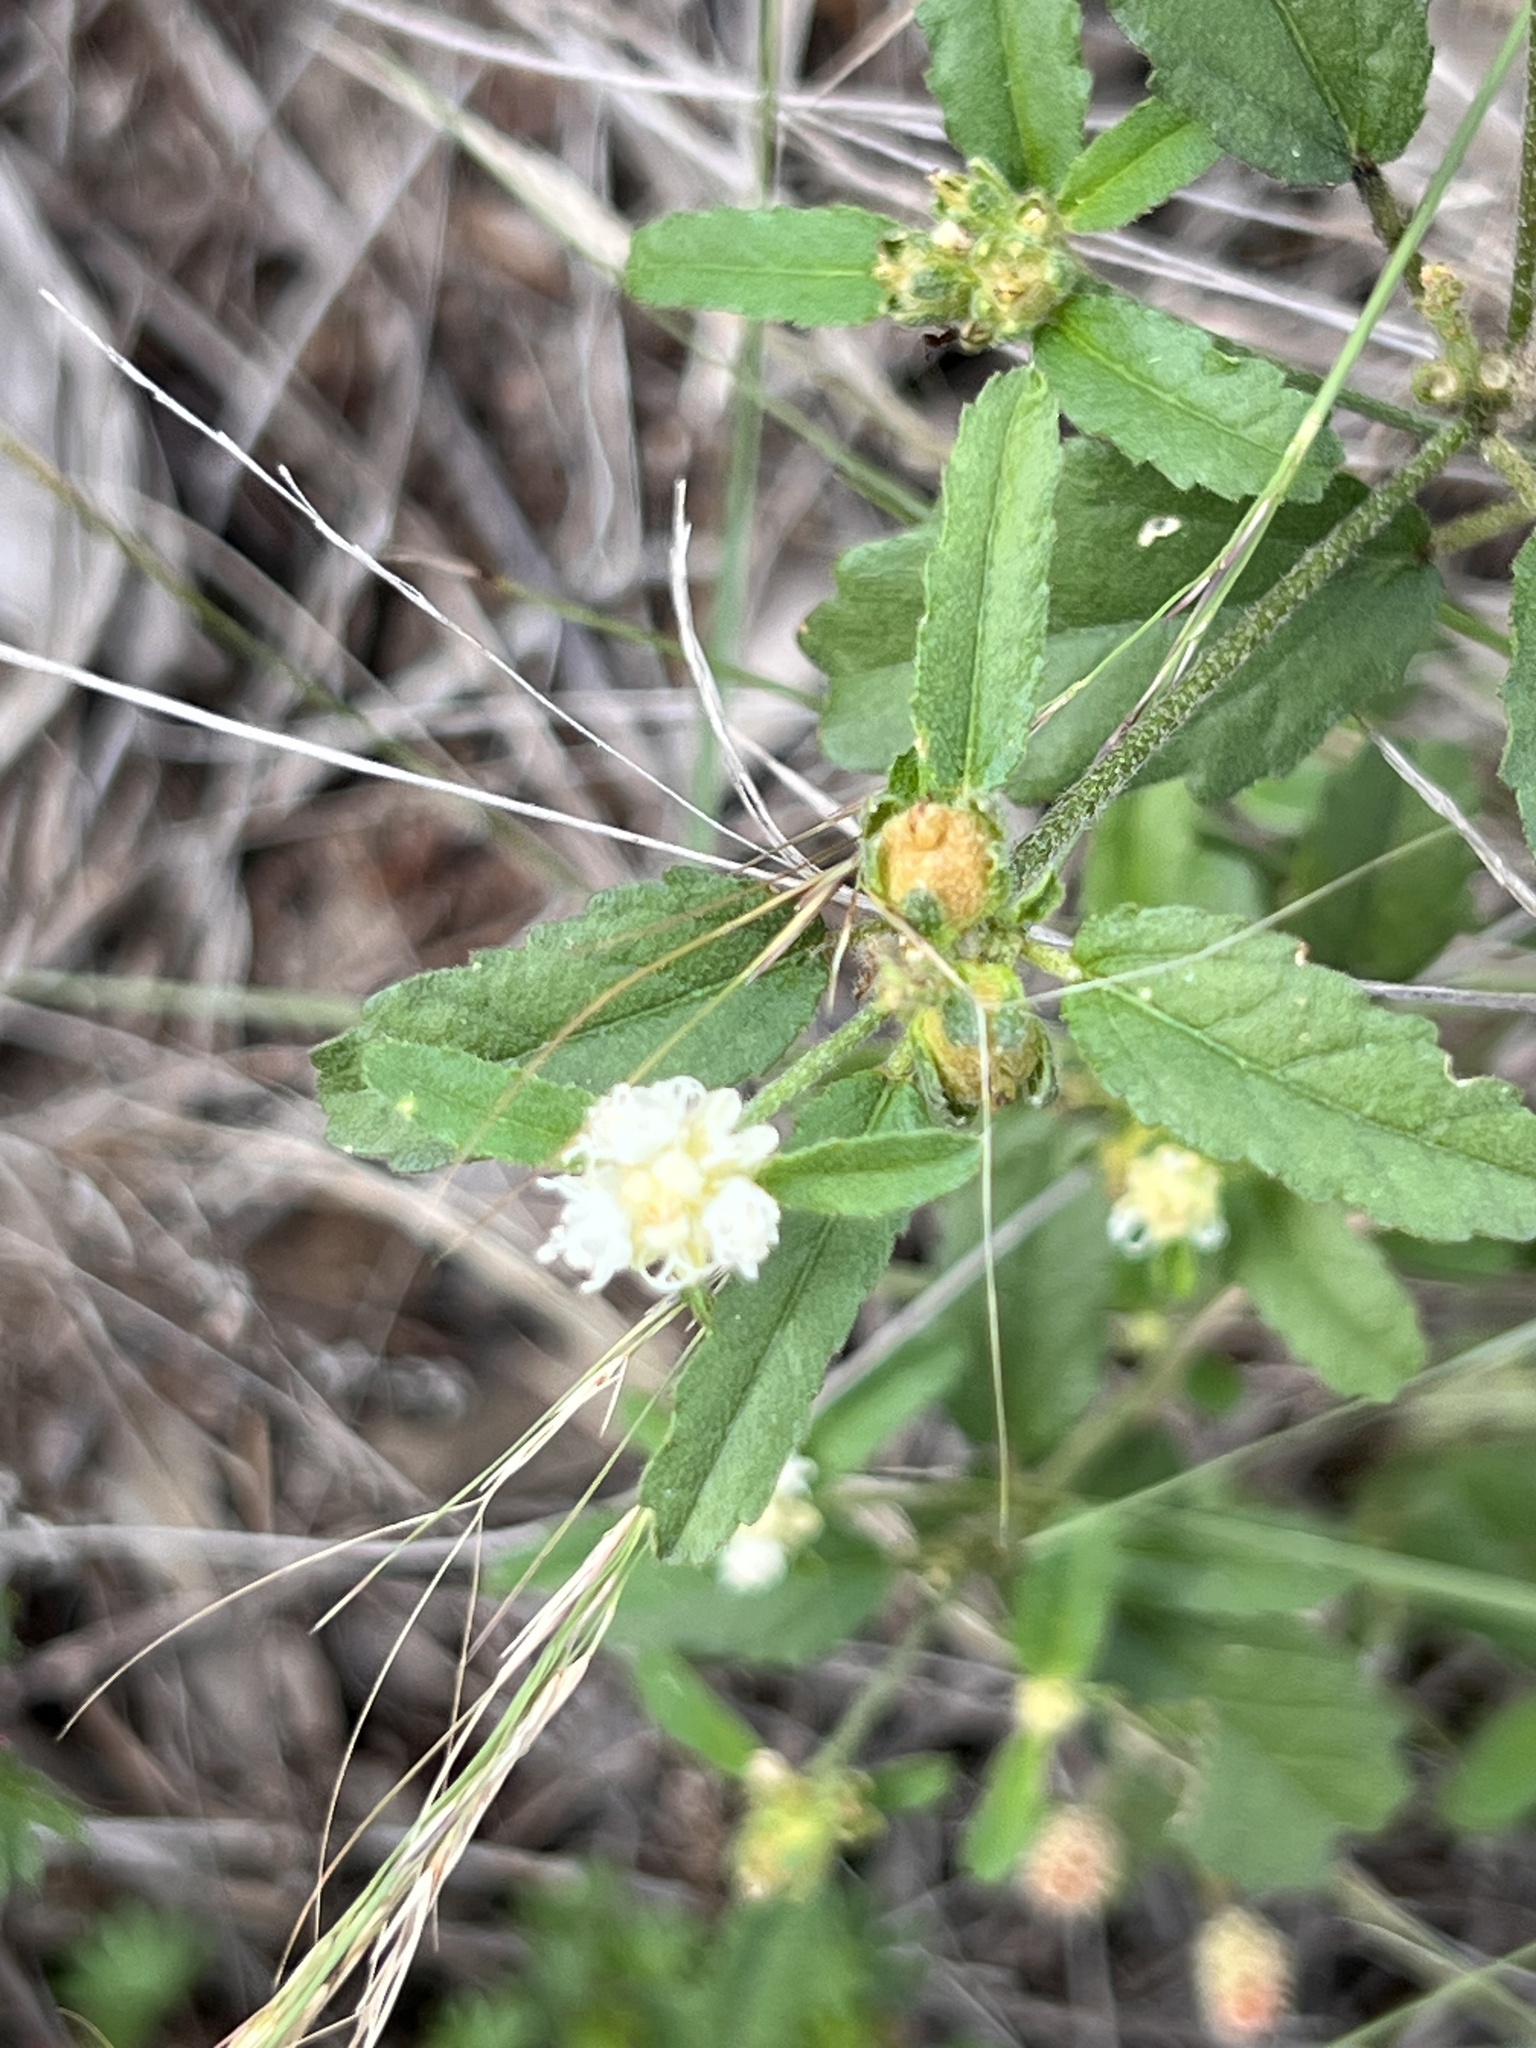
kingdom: Plantae
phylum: Tracheophyta
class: Magnoliopsida
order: Malpighiales
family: Euphorbiaceae
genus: Croton
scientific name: Croton glandulosus
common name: Tropic croton
